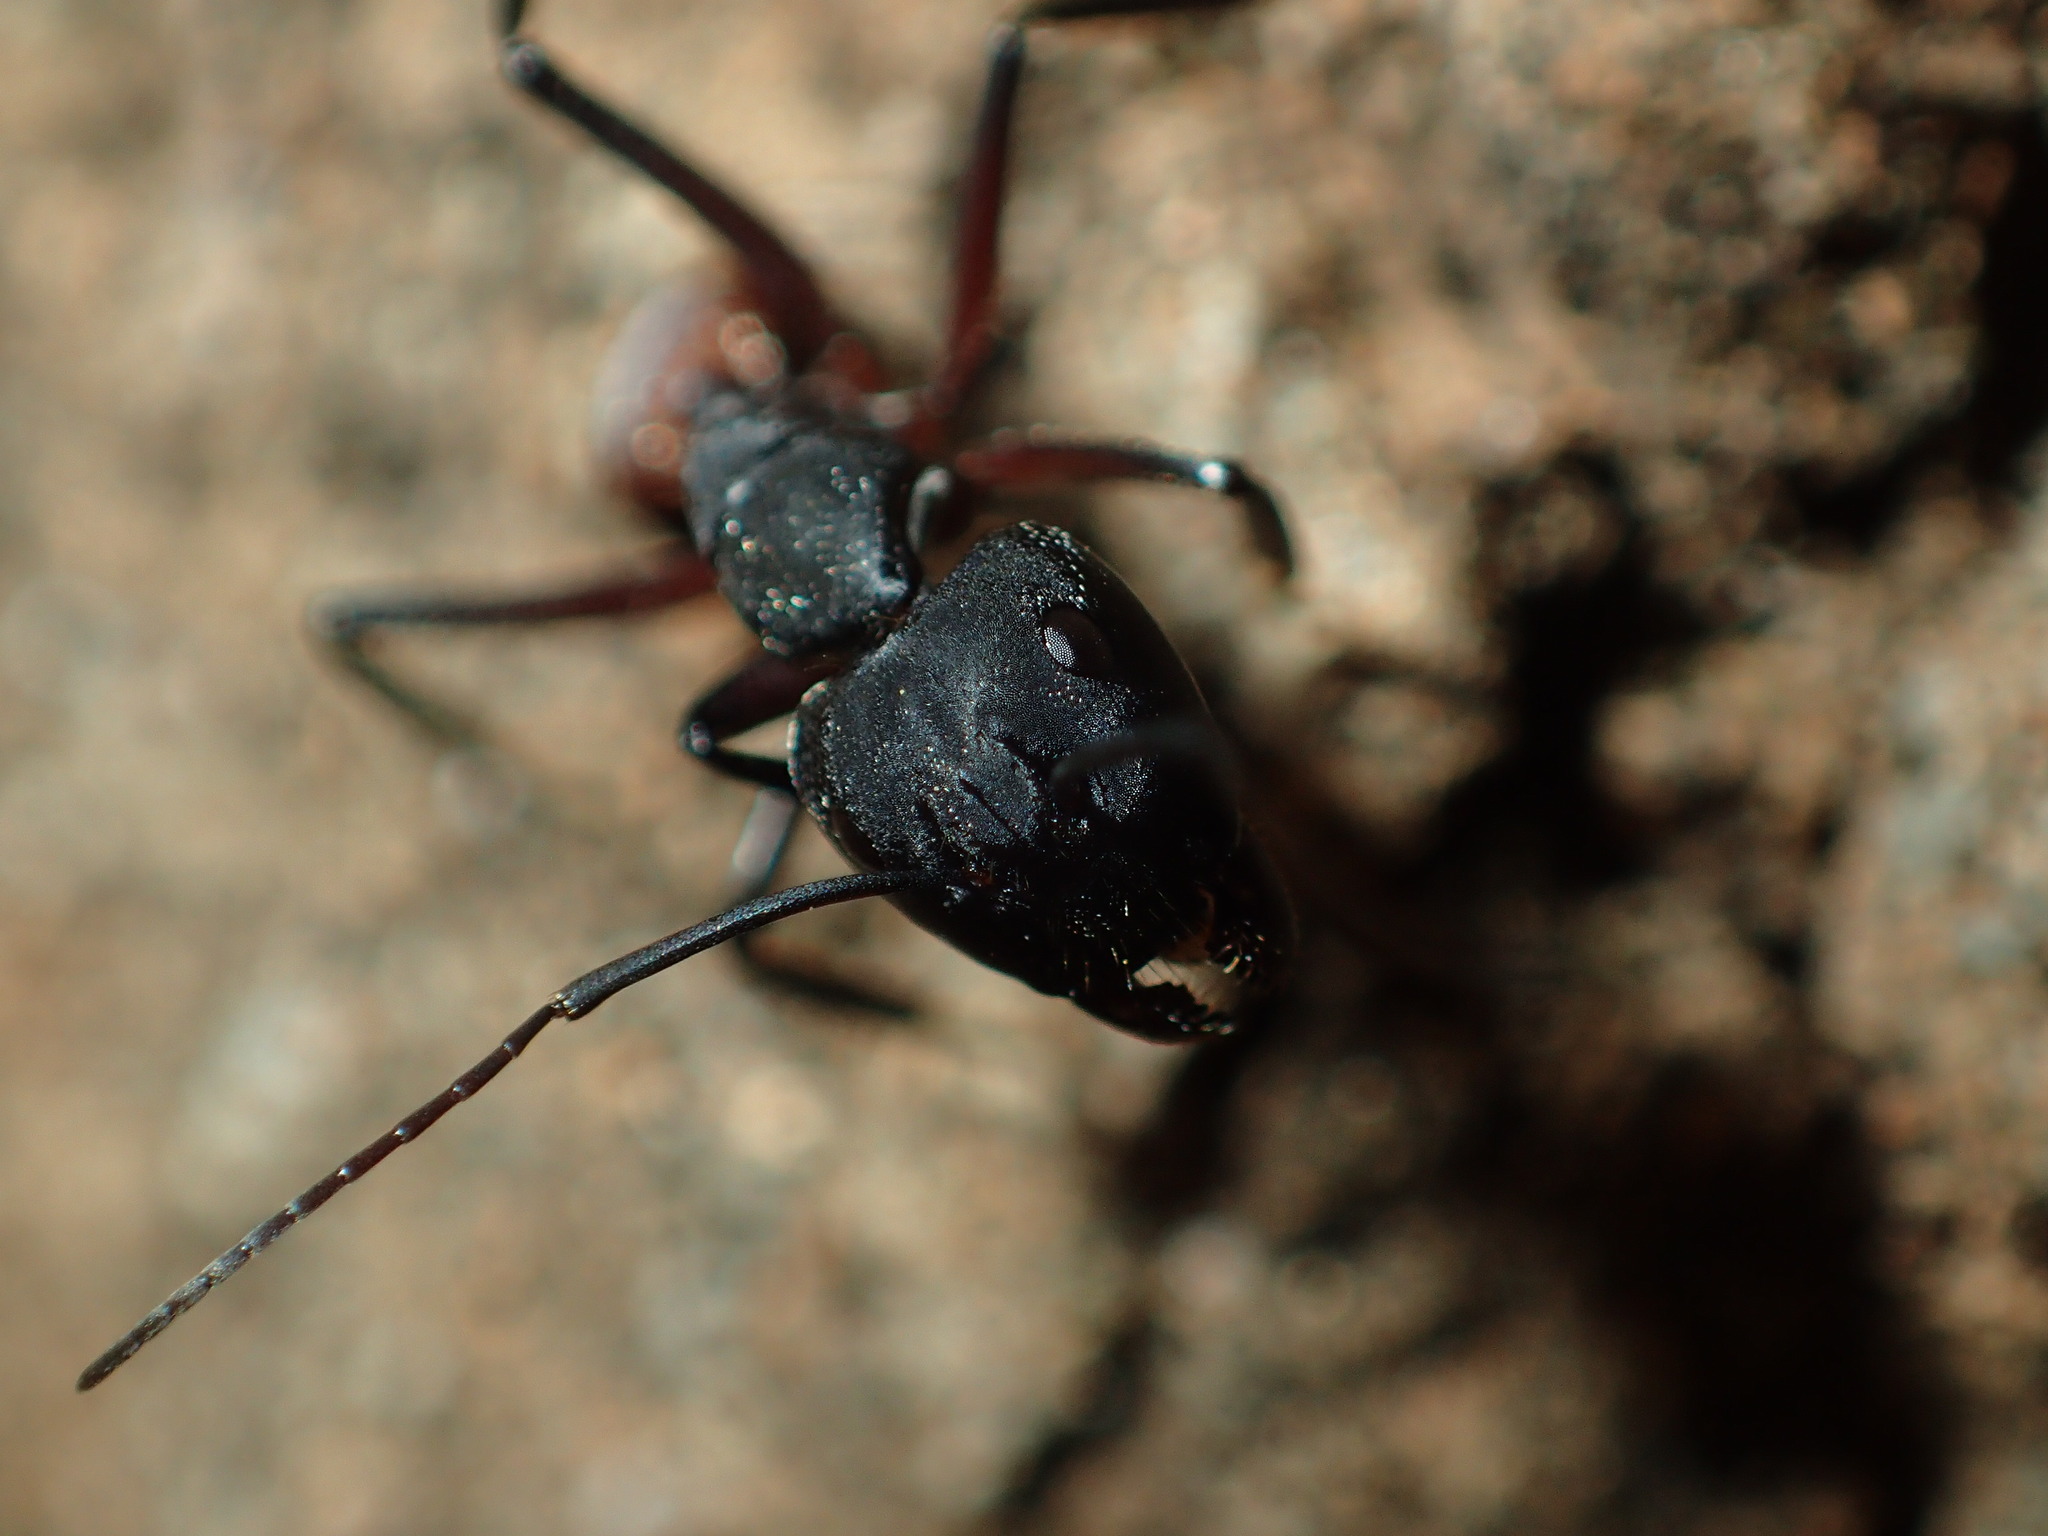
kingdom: Animalia
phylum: Arthropoda
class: Insecta
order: Hymenoptera
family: Formicidae
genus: Camponotus
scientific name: Camponotus cruentatus
